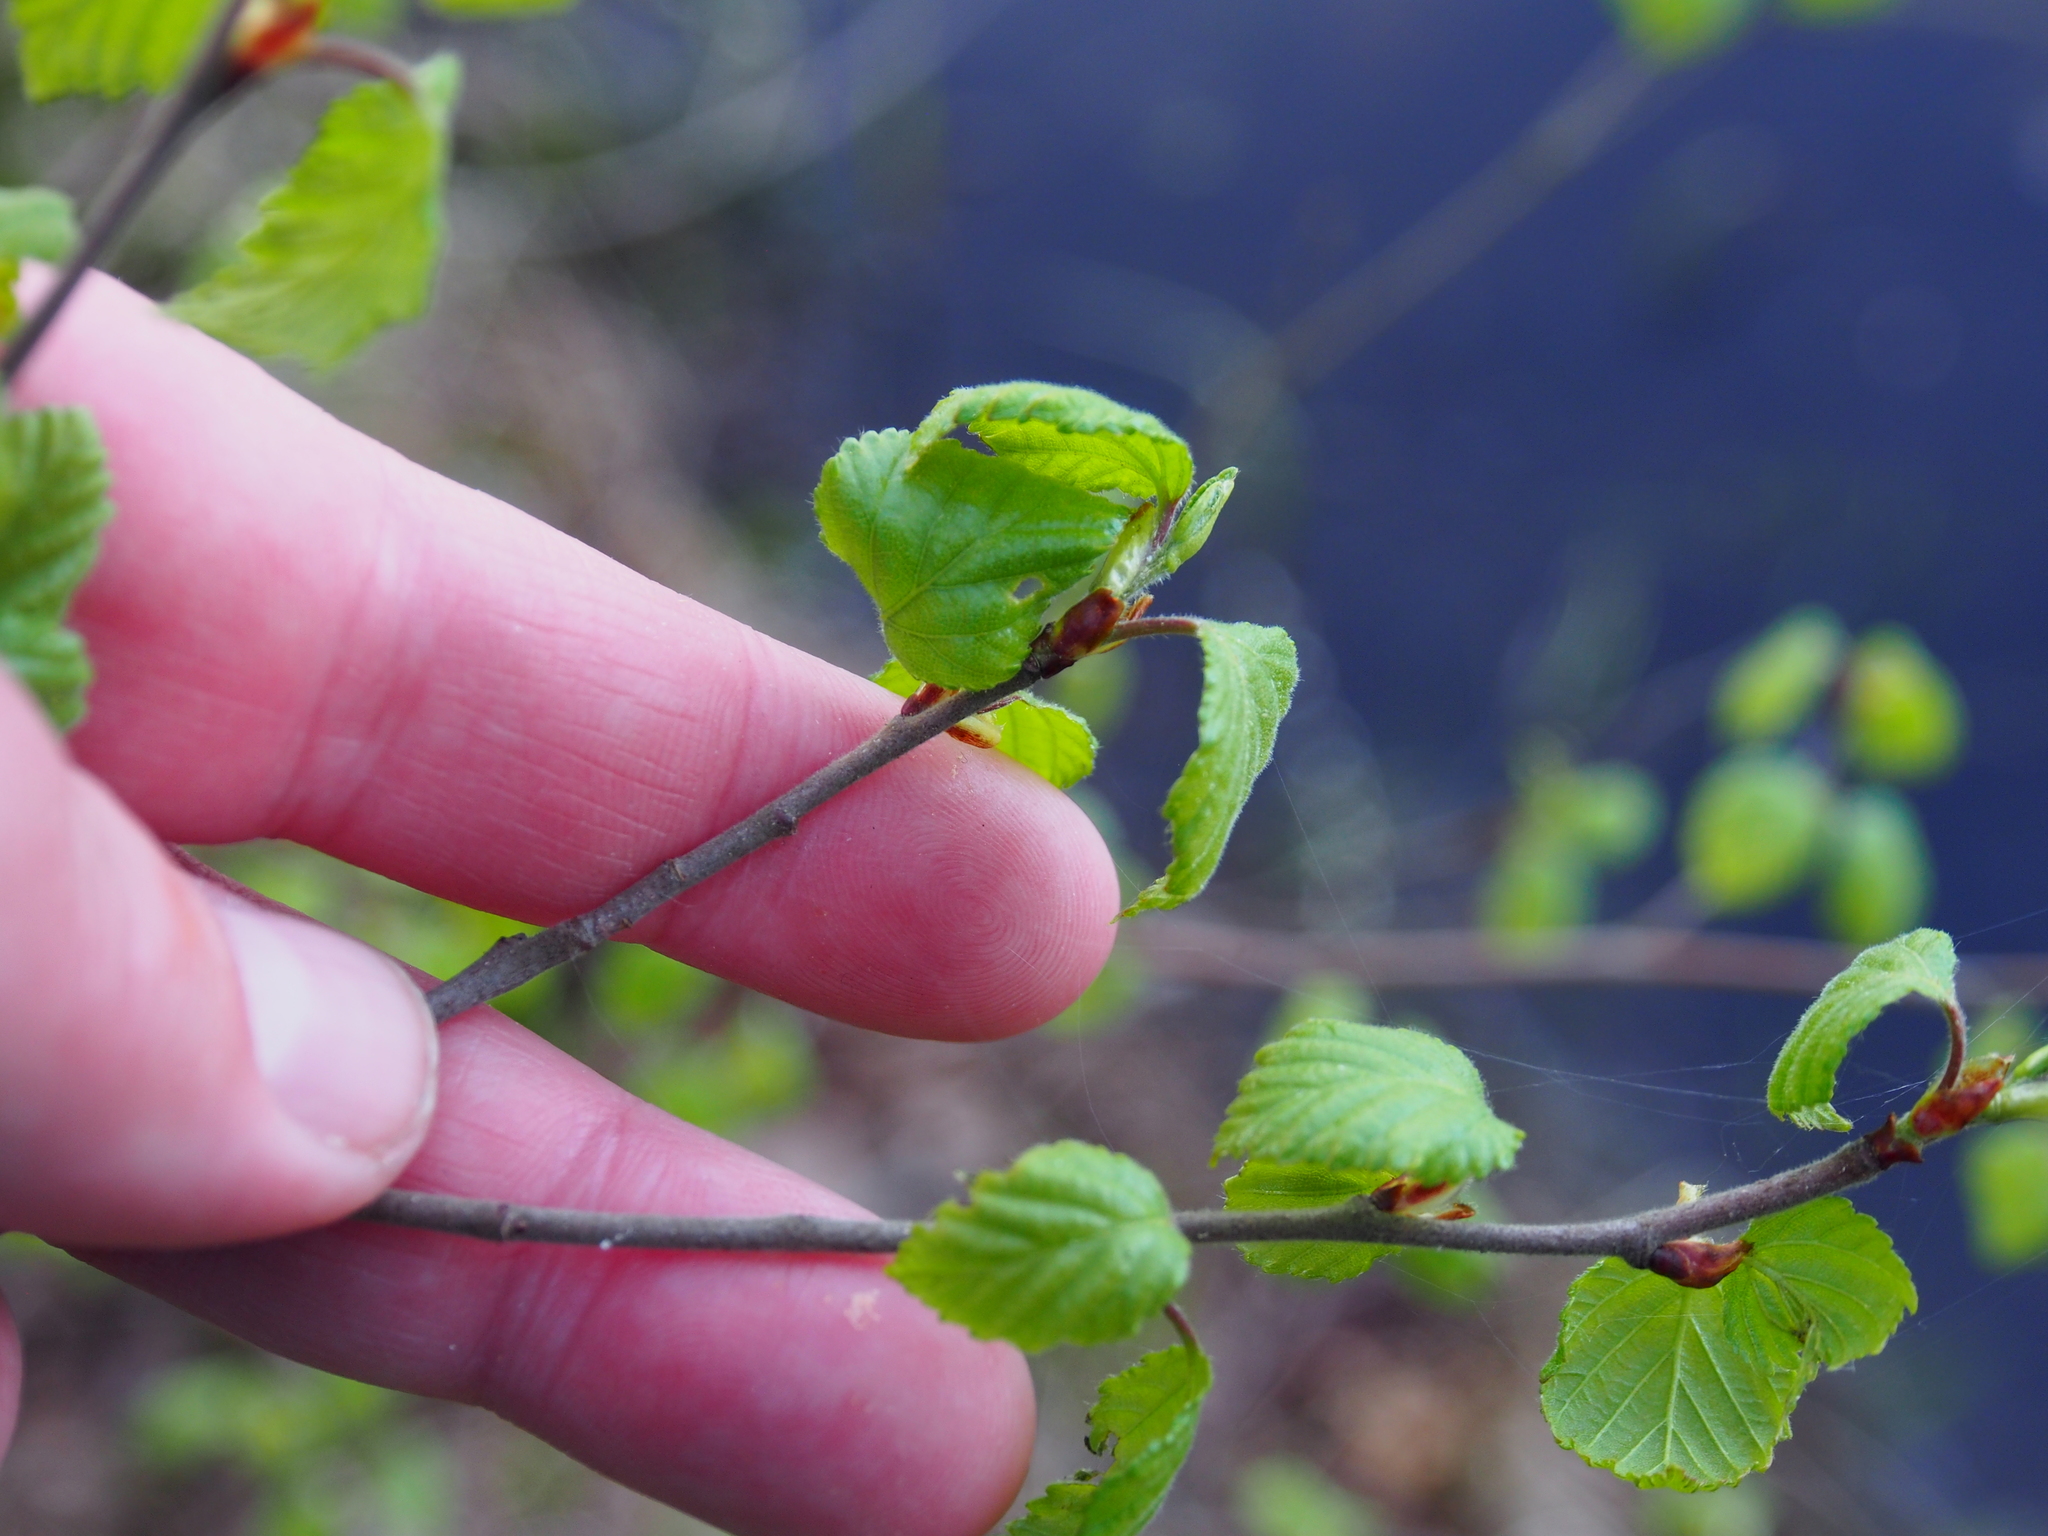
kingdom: Plantae
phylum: Tracheophyta
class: Magnoliopsida
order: Fagales
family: Betulaceae
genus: Betula
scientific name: Betula pubescens
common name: Downy birch
